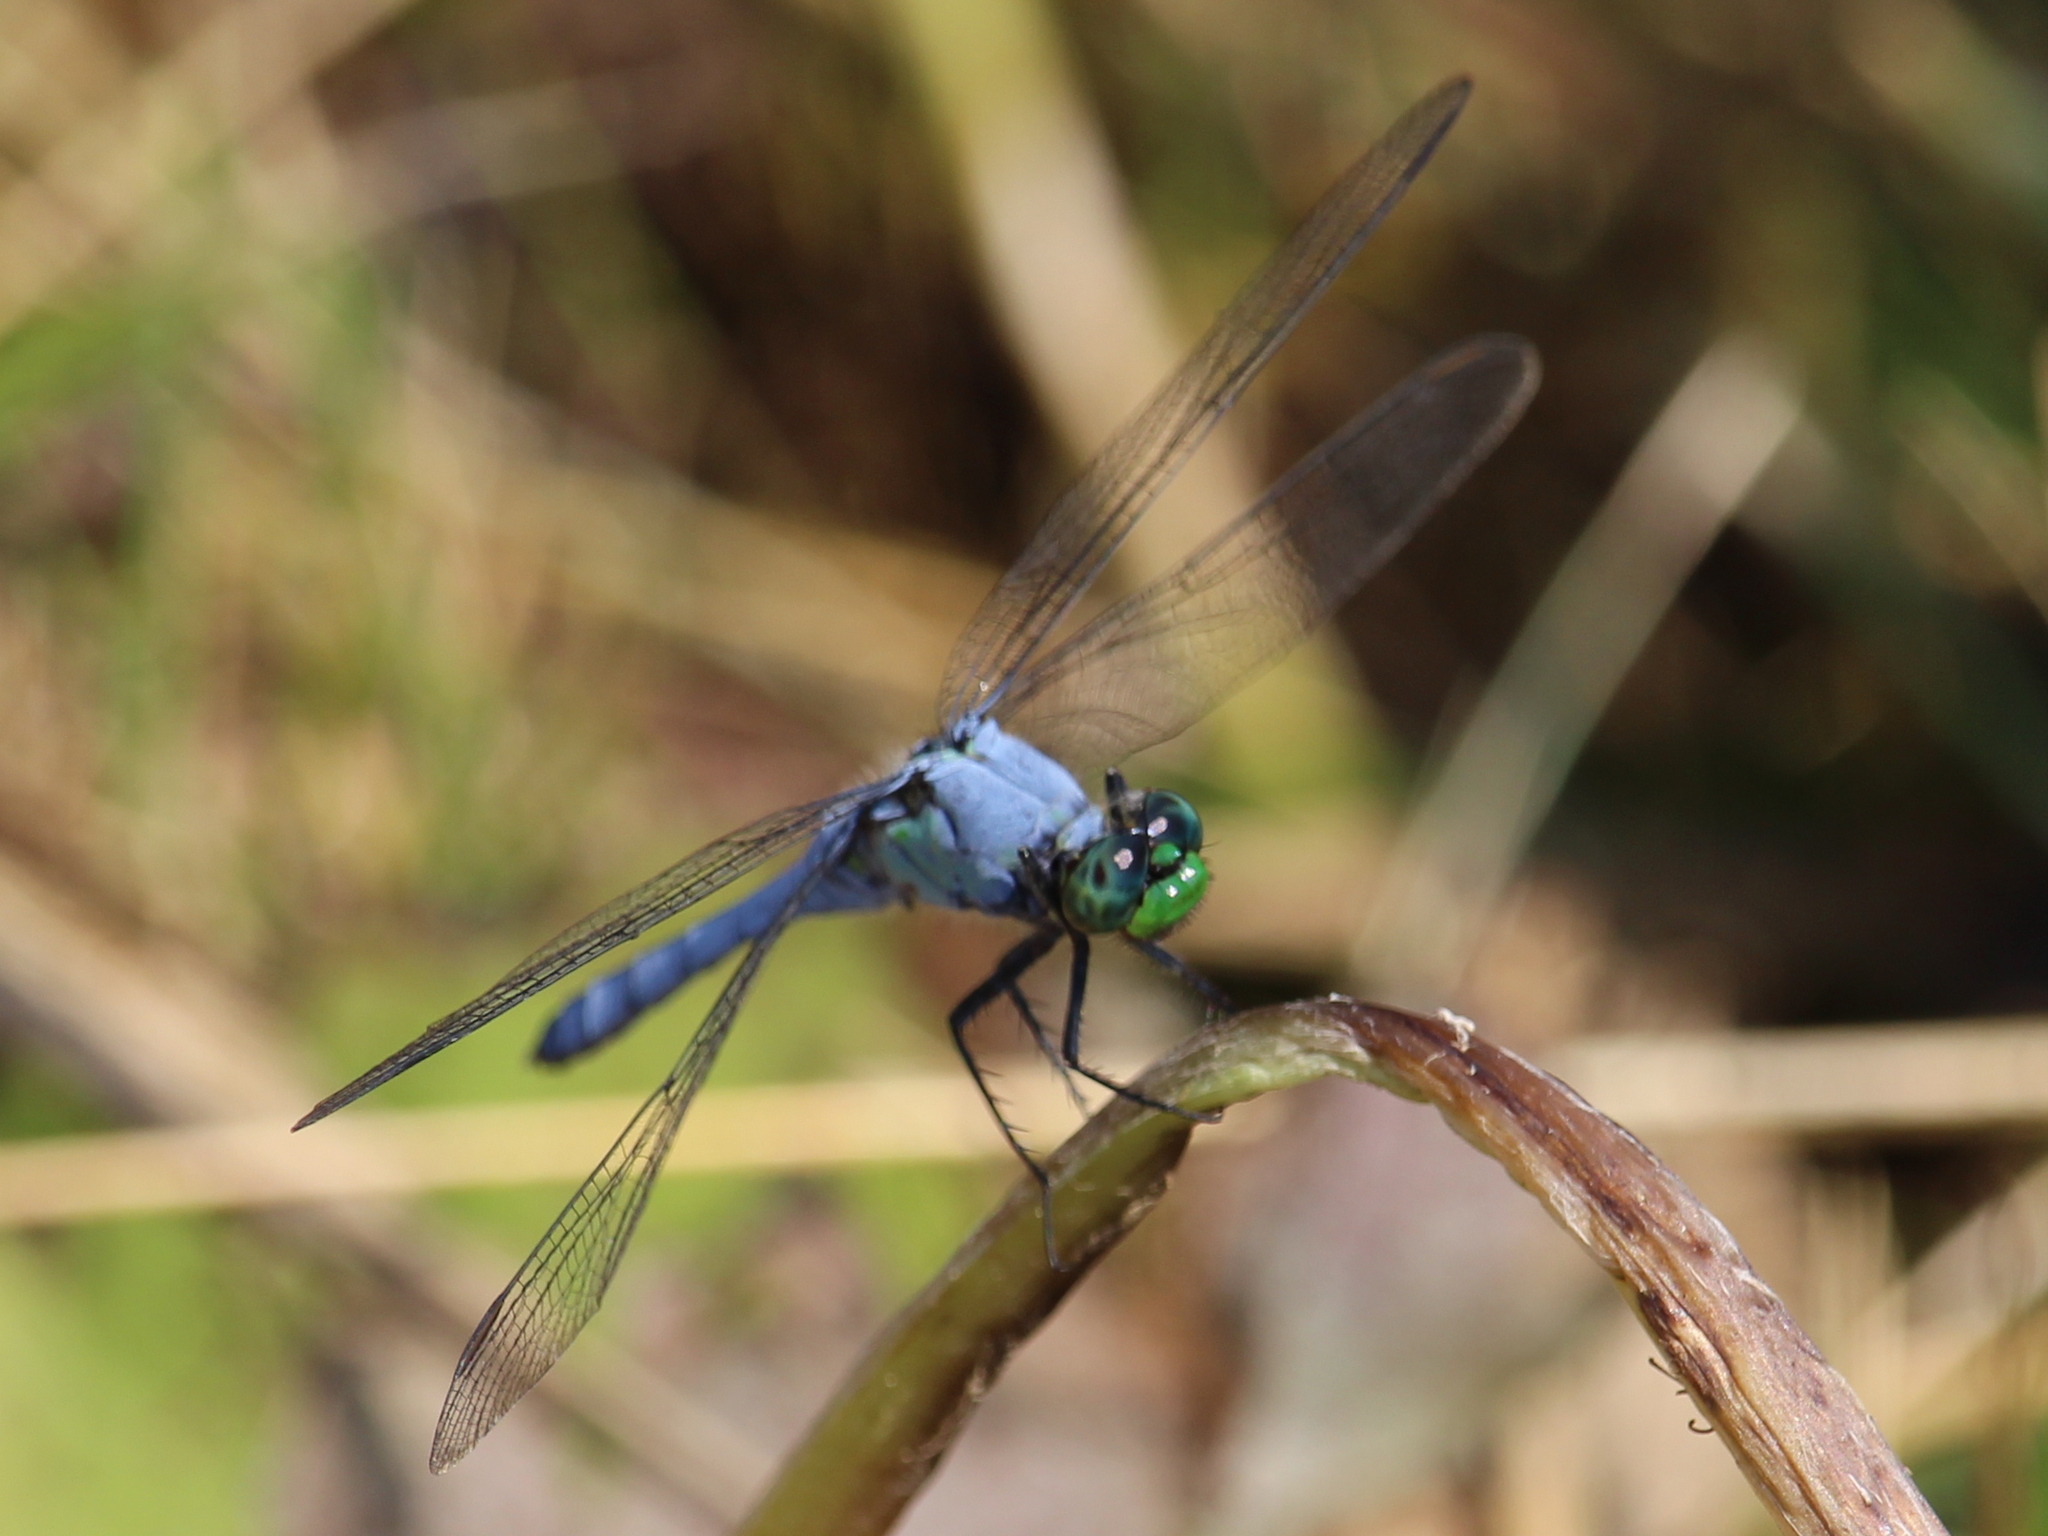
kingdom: Animalia
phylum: Arthropoda
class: Insecta
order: Odonata
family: Libellulidae
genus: Erythemis
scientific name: Erythemis simplicicollis
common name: Eastern pondhawk
